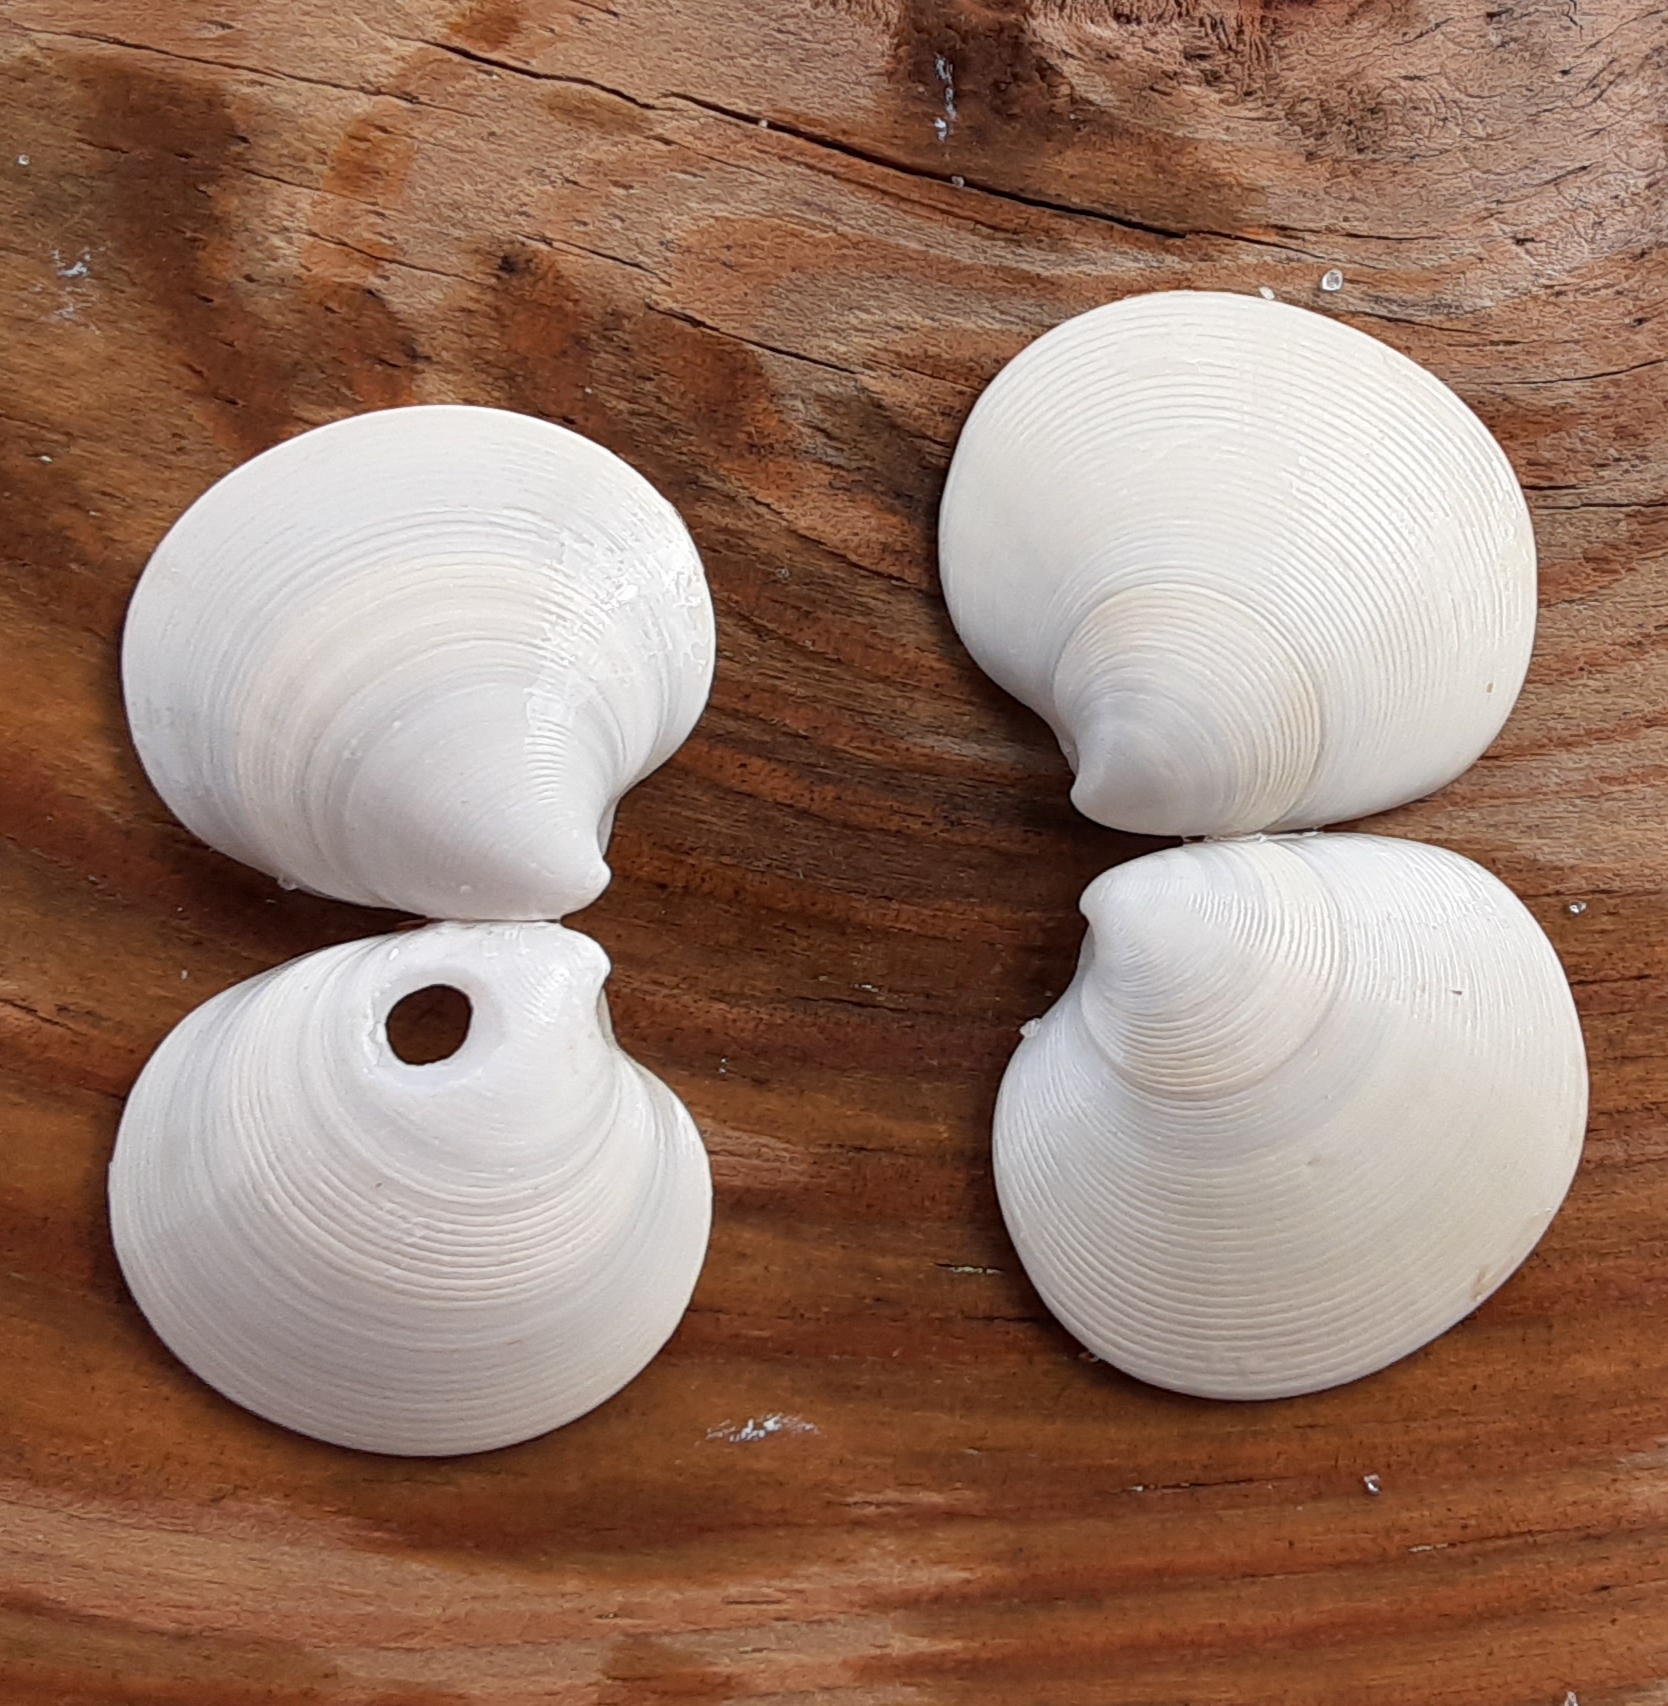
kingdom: Animalia
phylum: Mollusca
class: Bivalvia
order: Venerida
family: Veneridae
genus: Dosinia
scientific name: Dosinia discus
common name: Disk dosinia
